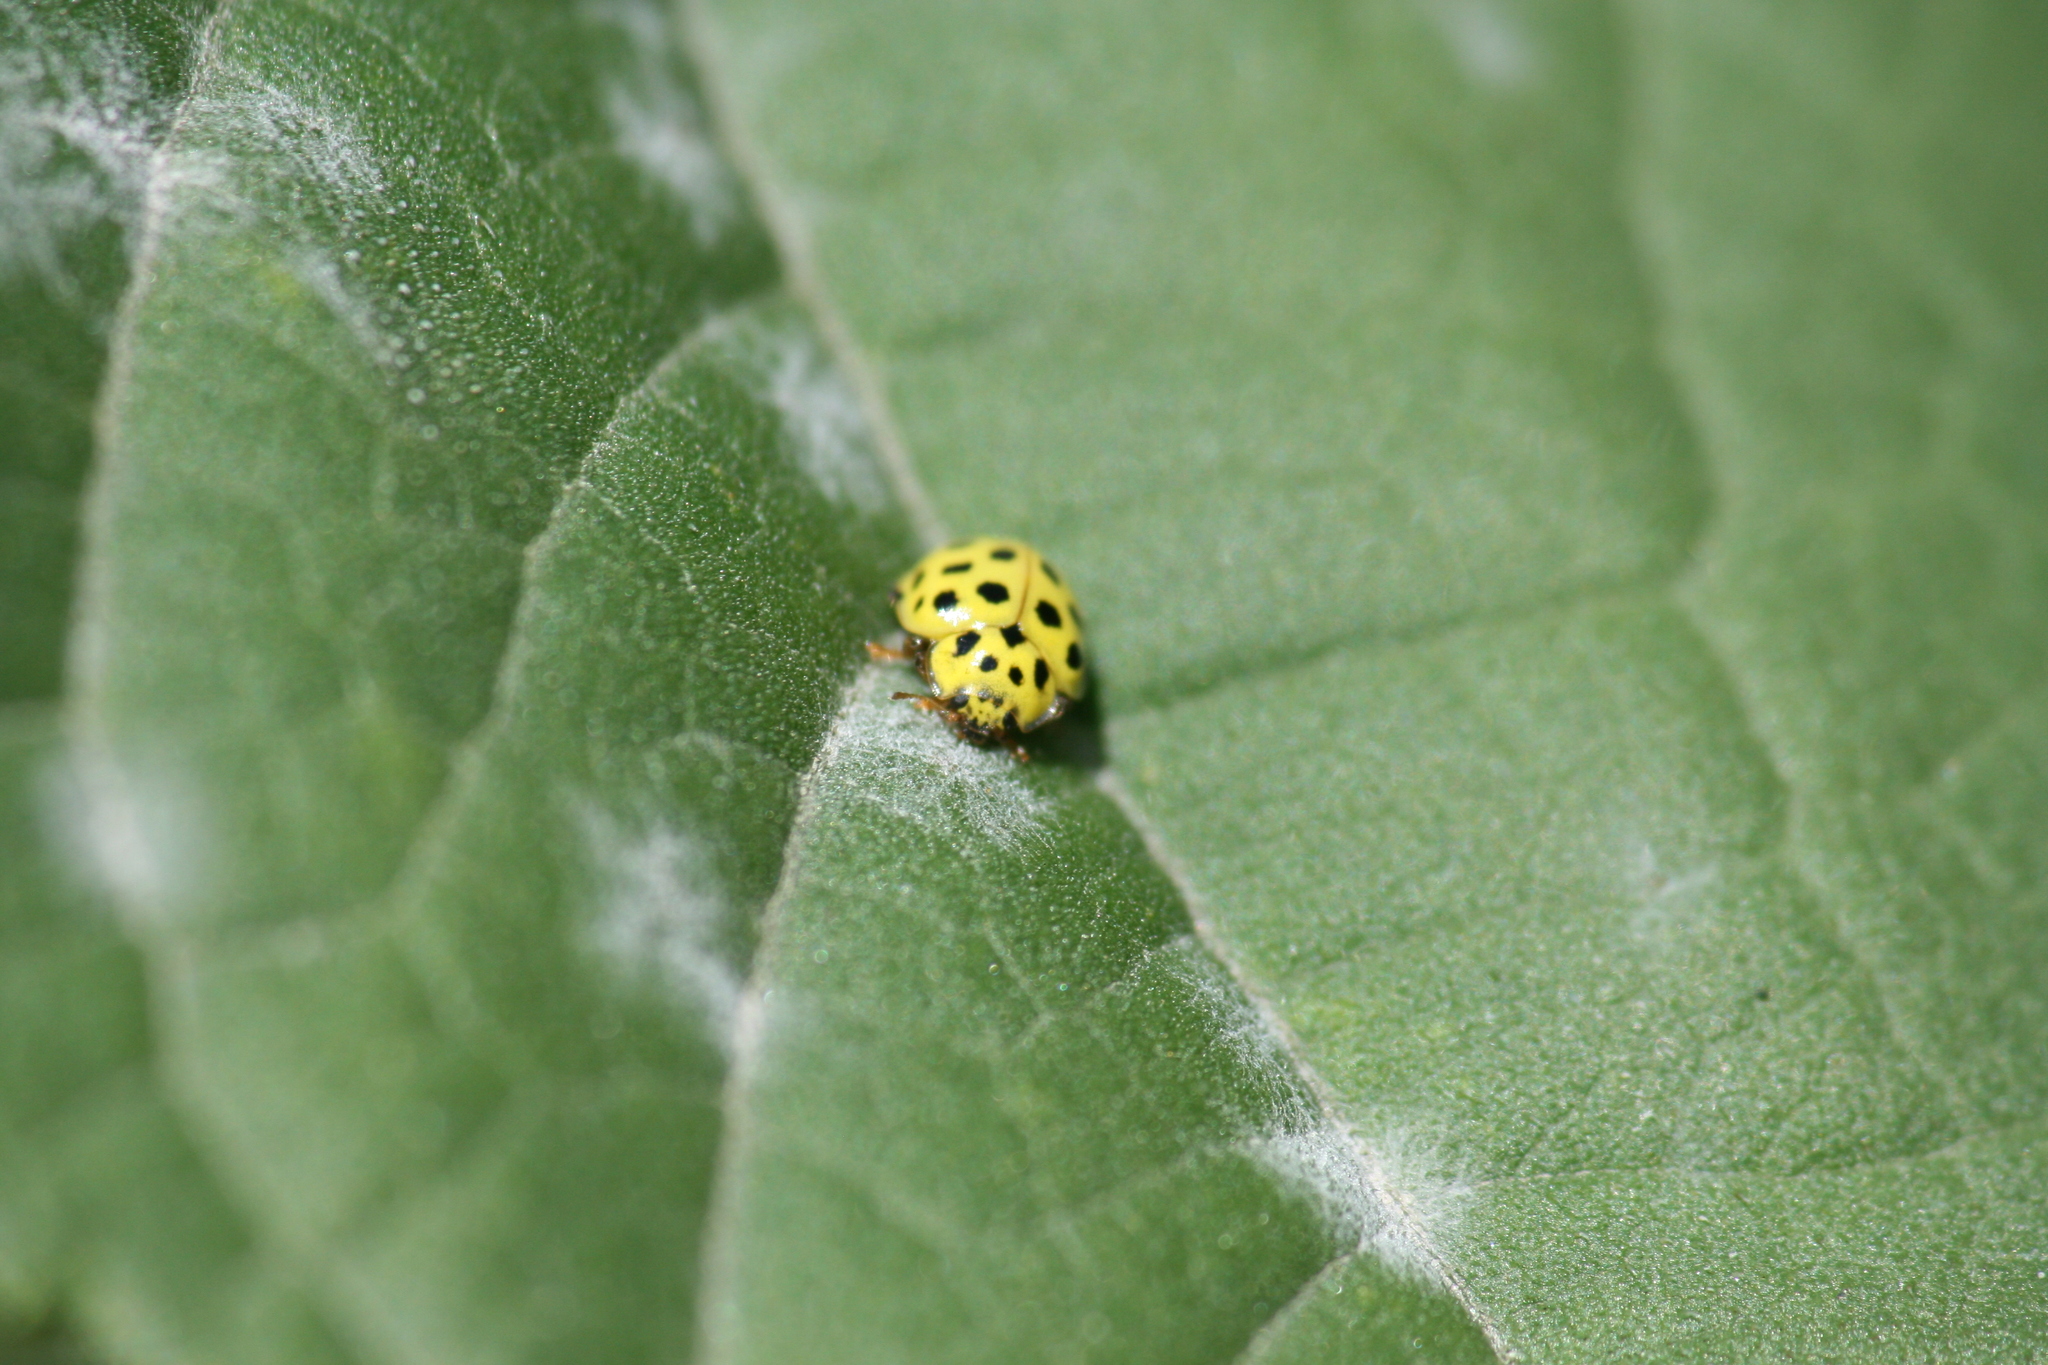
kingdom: Animalia
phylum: Arthropoda
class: Insecta
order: Coleoptera
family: Coccinellidae
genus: Psyllobora
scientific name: Psyllobora vigintiduopunctata
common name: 22-spot ladybird
